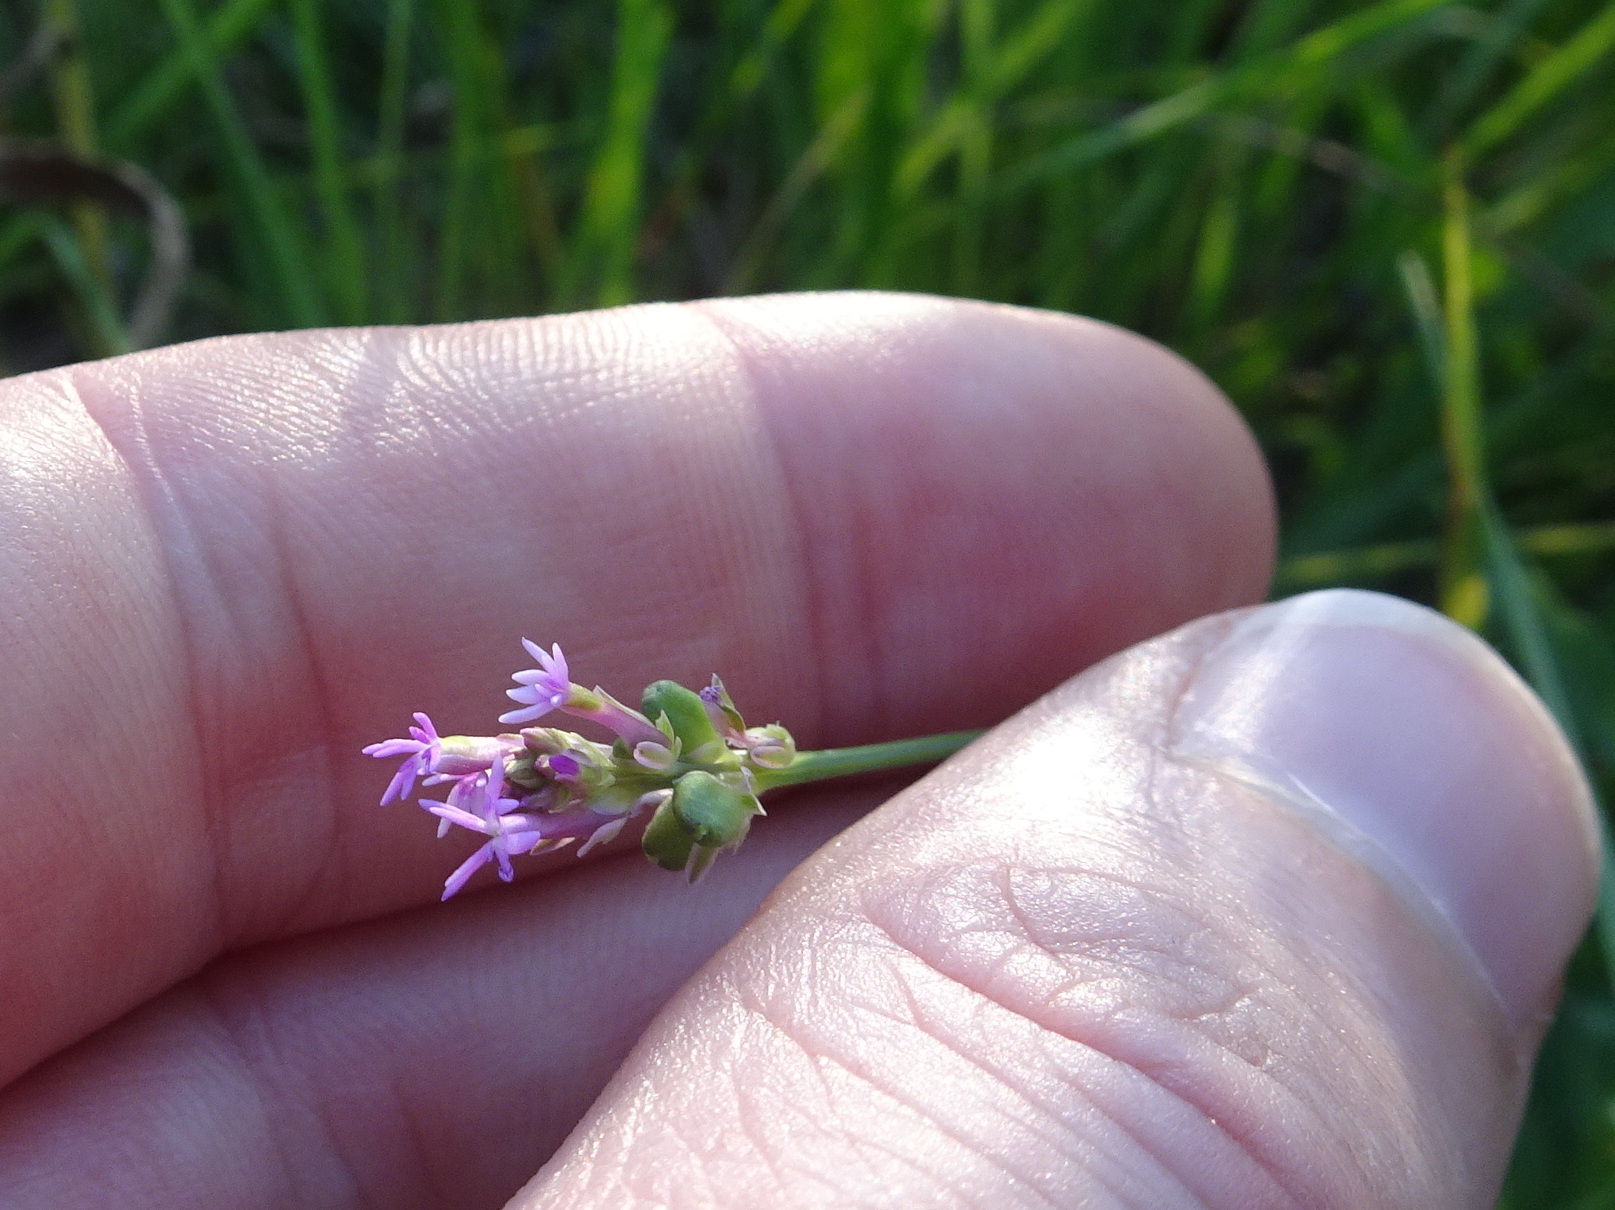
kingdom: Plantae
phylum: Tracheophyta
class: Magnoliopsida
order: Fabales
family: Polygalaceae
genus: Polygala
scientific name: Polygala incarnata
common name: Pink milkwort
